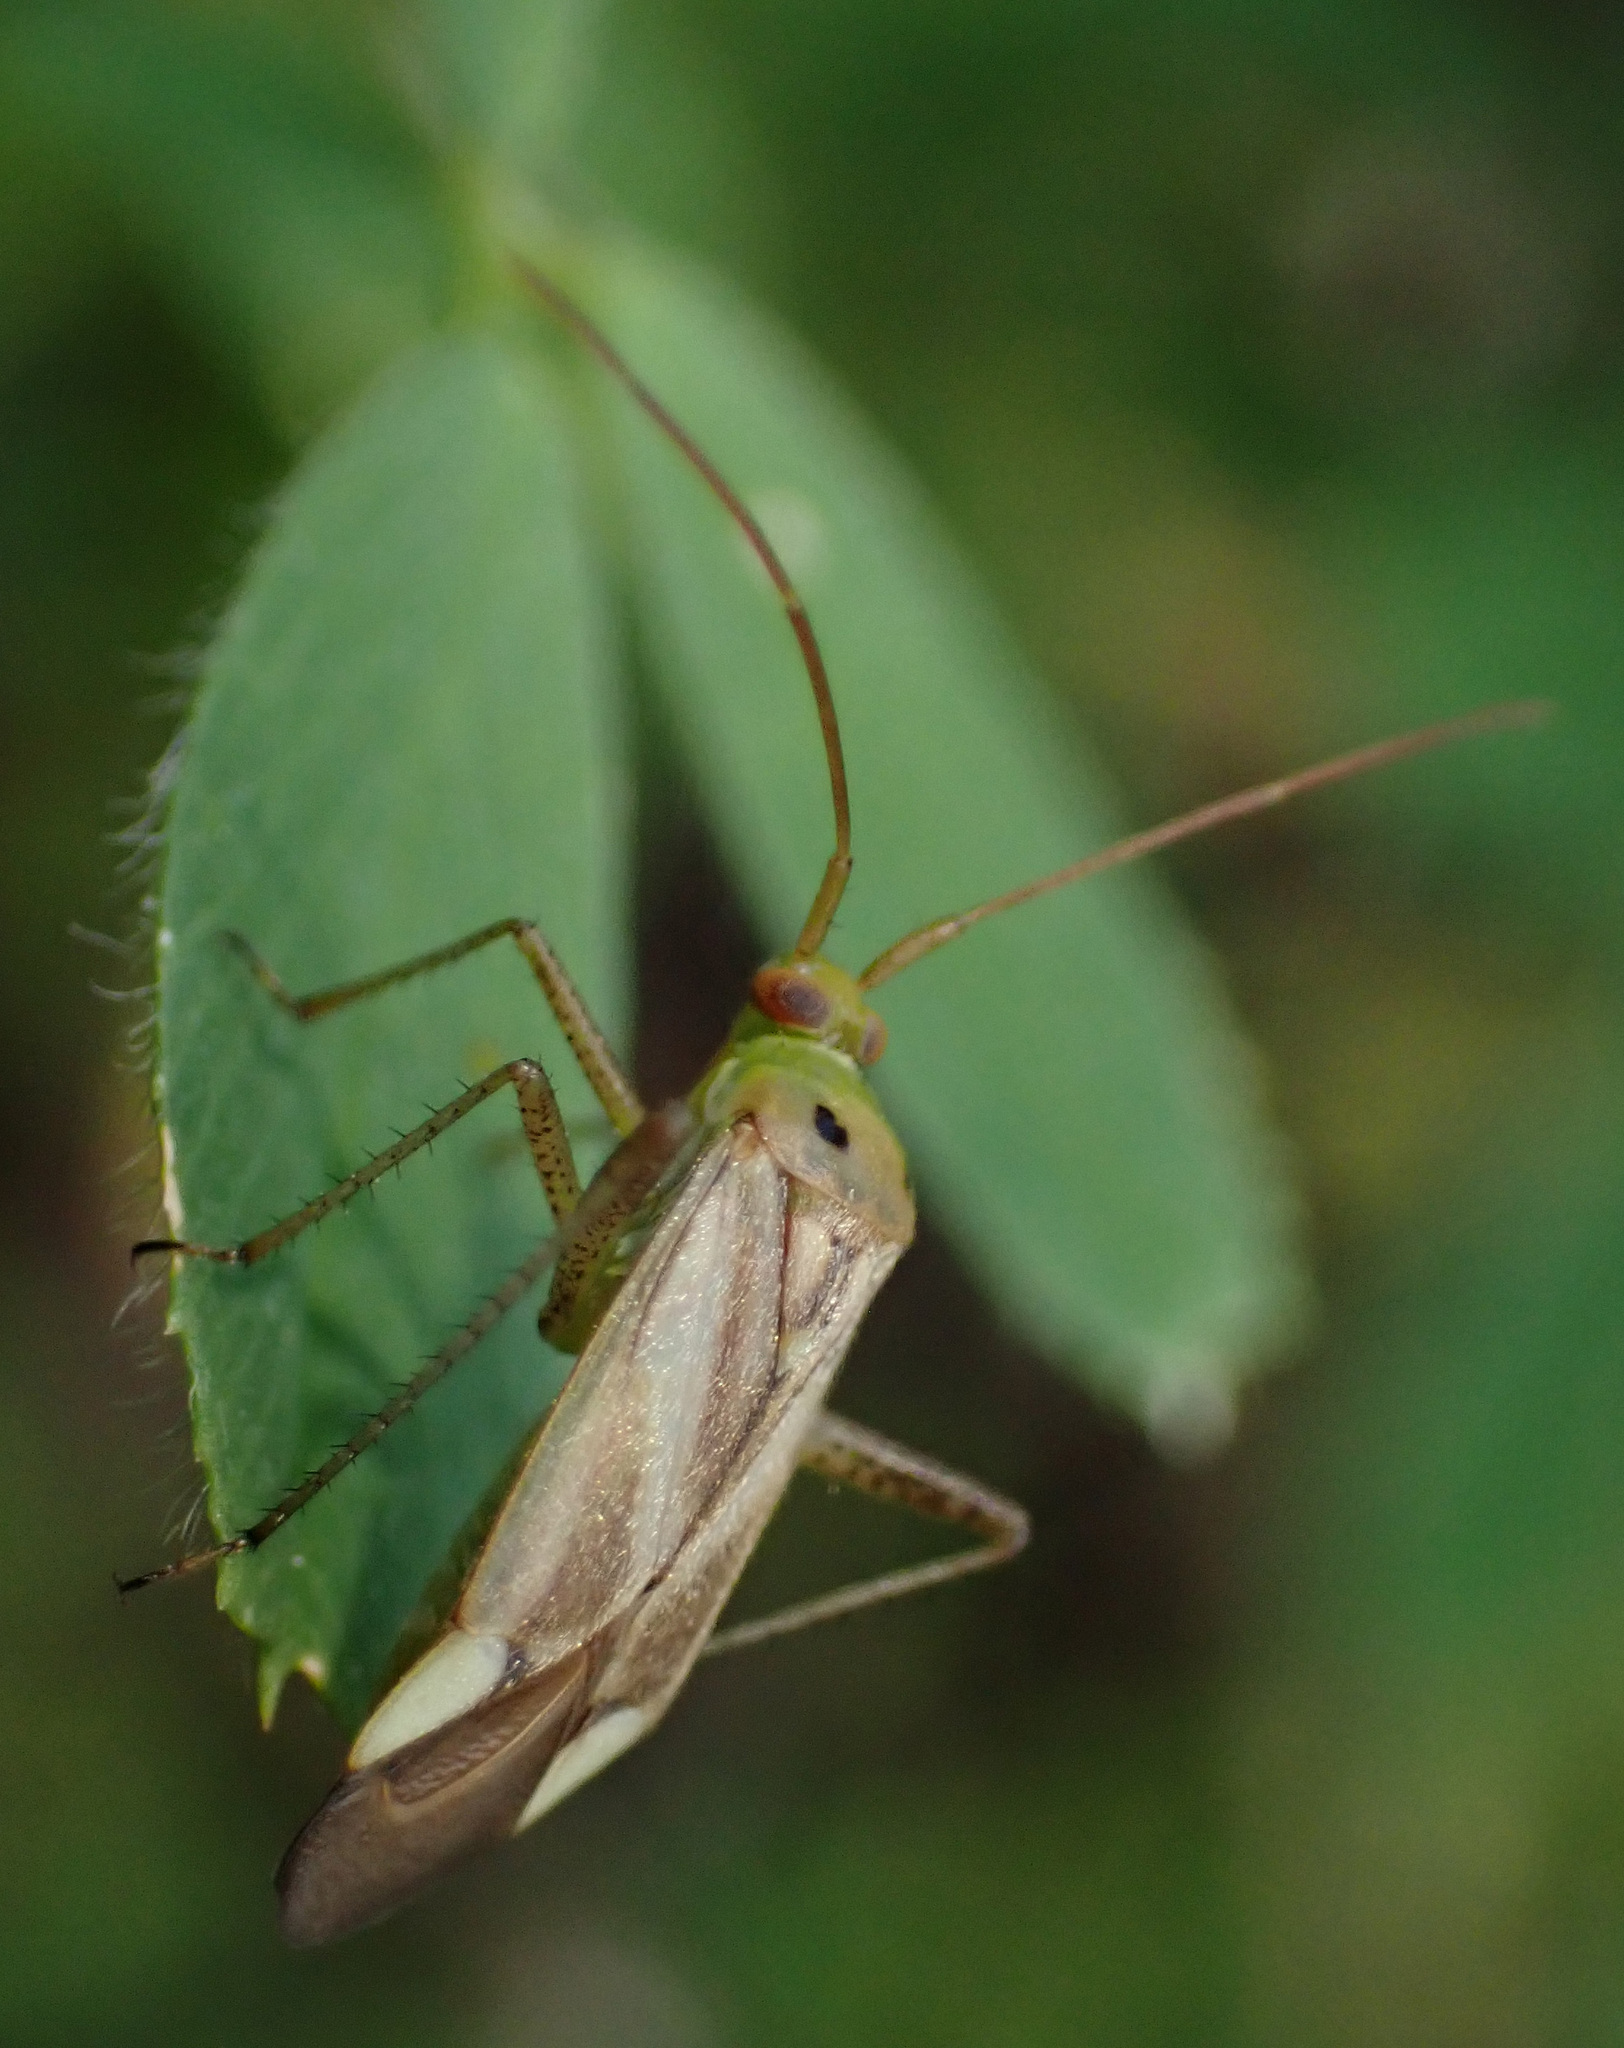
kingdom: Animalia
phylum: Arthropoda
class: Insecta
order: Hemiptera
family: Miridae
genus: Adelphocoris
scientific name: Adelphocoris lineolatus
